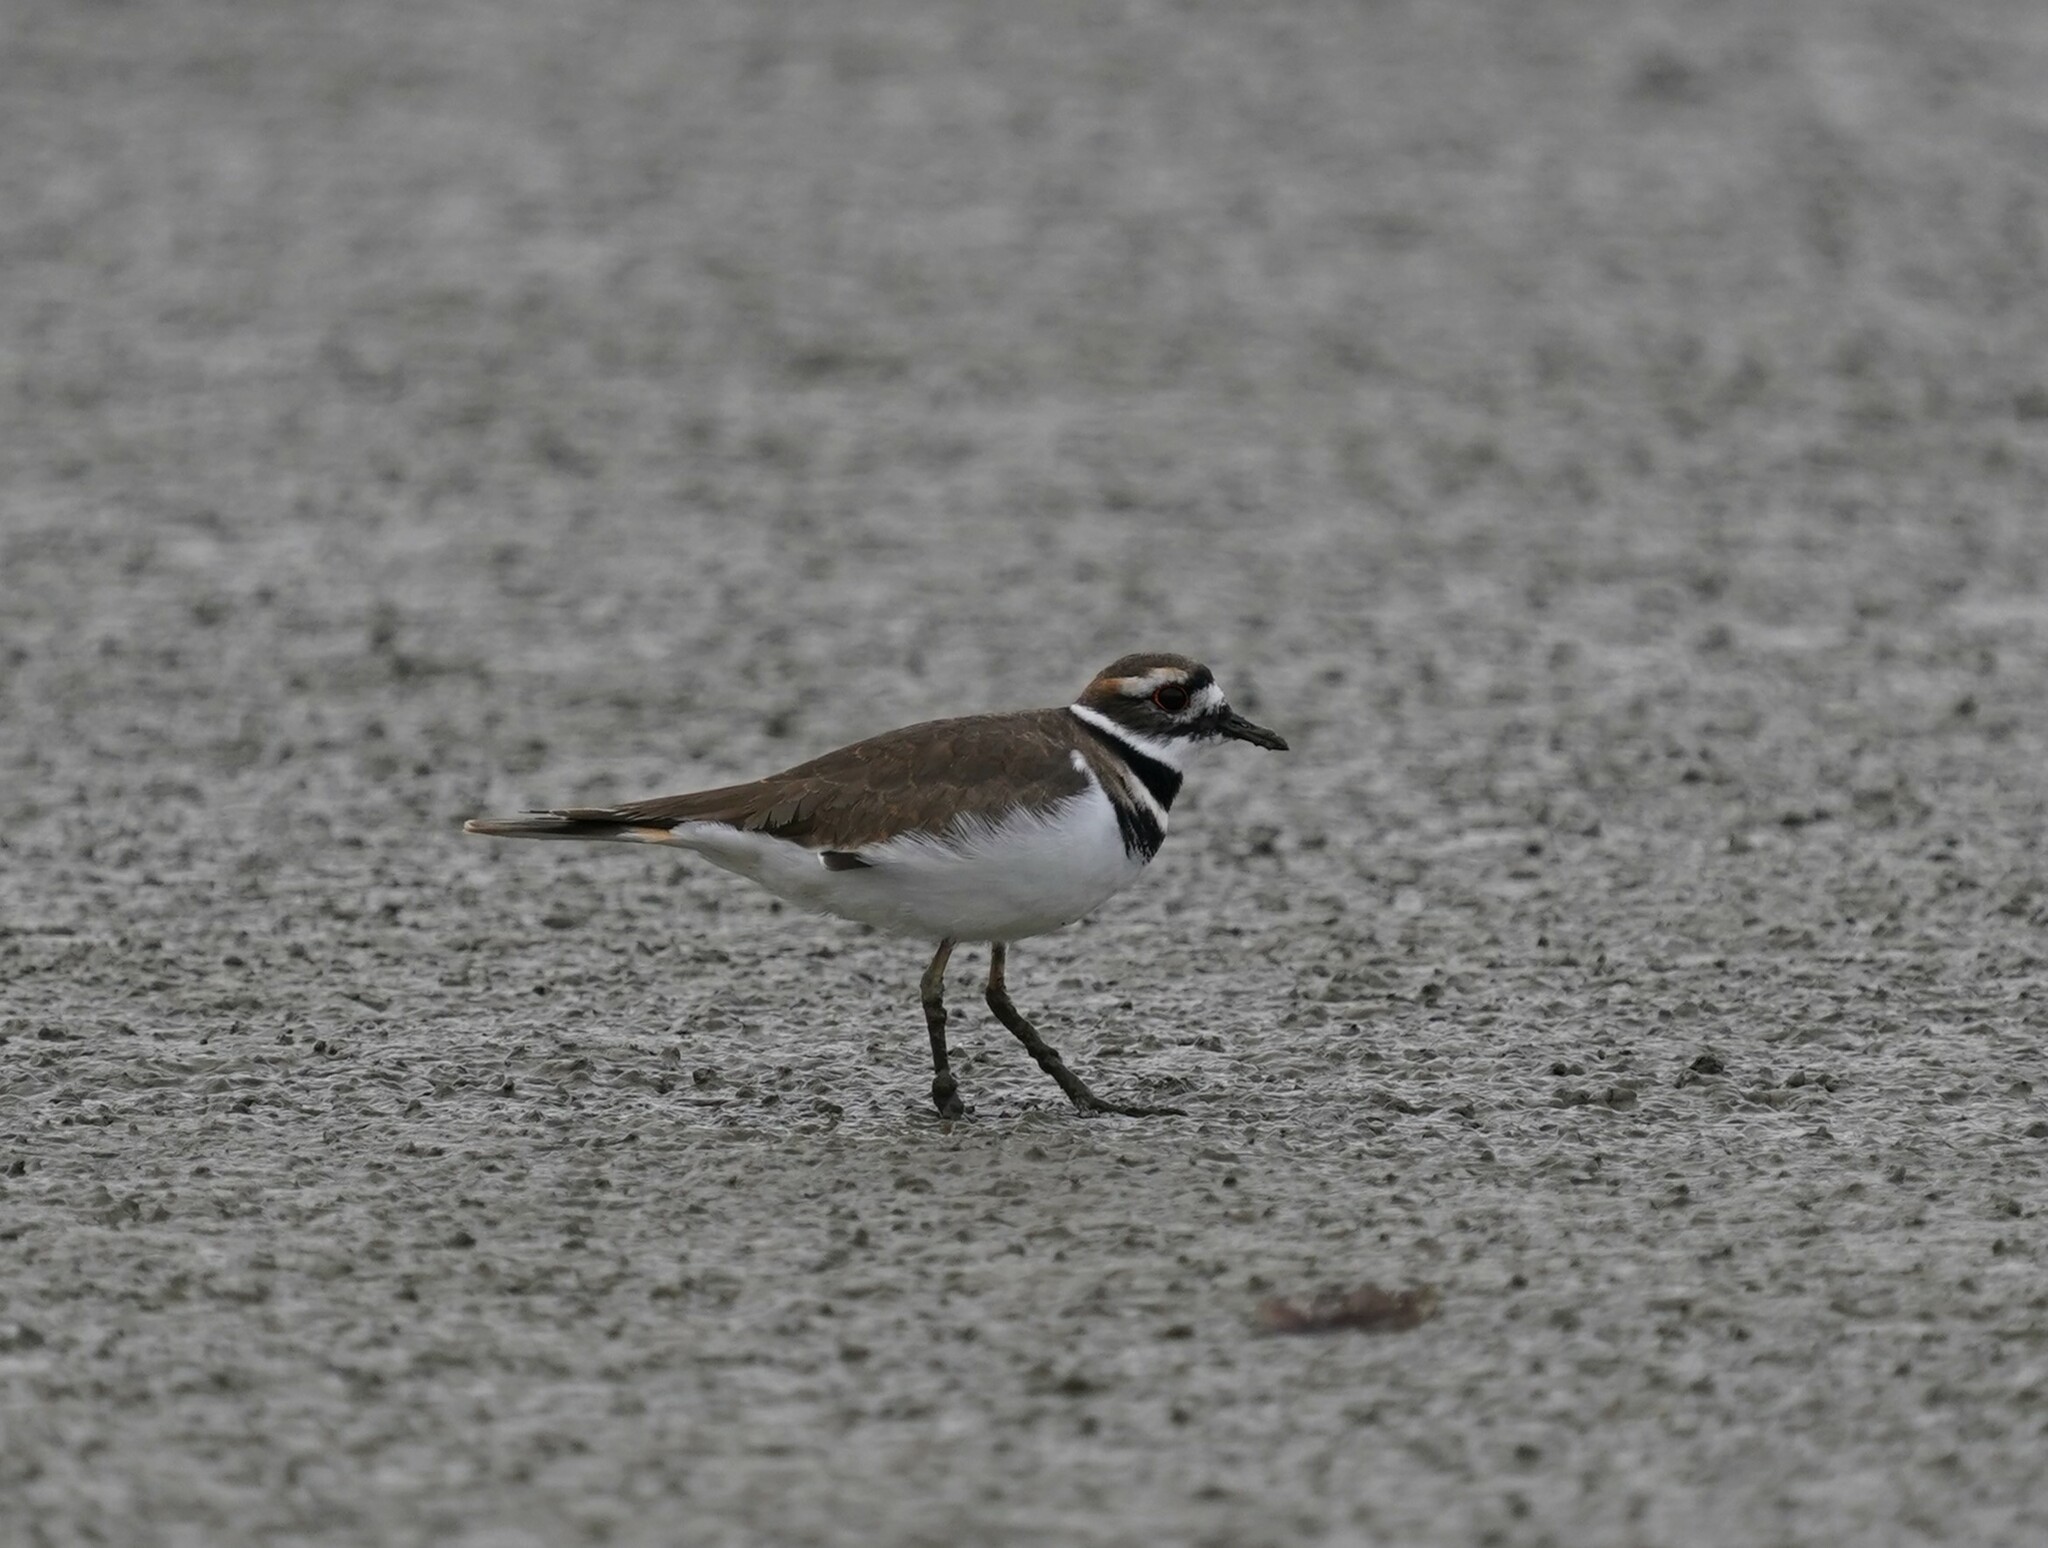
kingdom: Animalia
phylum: Chordata
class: Aves
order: Charadriiformes
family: Charadriidae
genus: Charadrius
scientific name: Charadrius vociferus
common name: Killdeer
